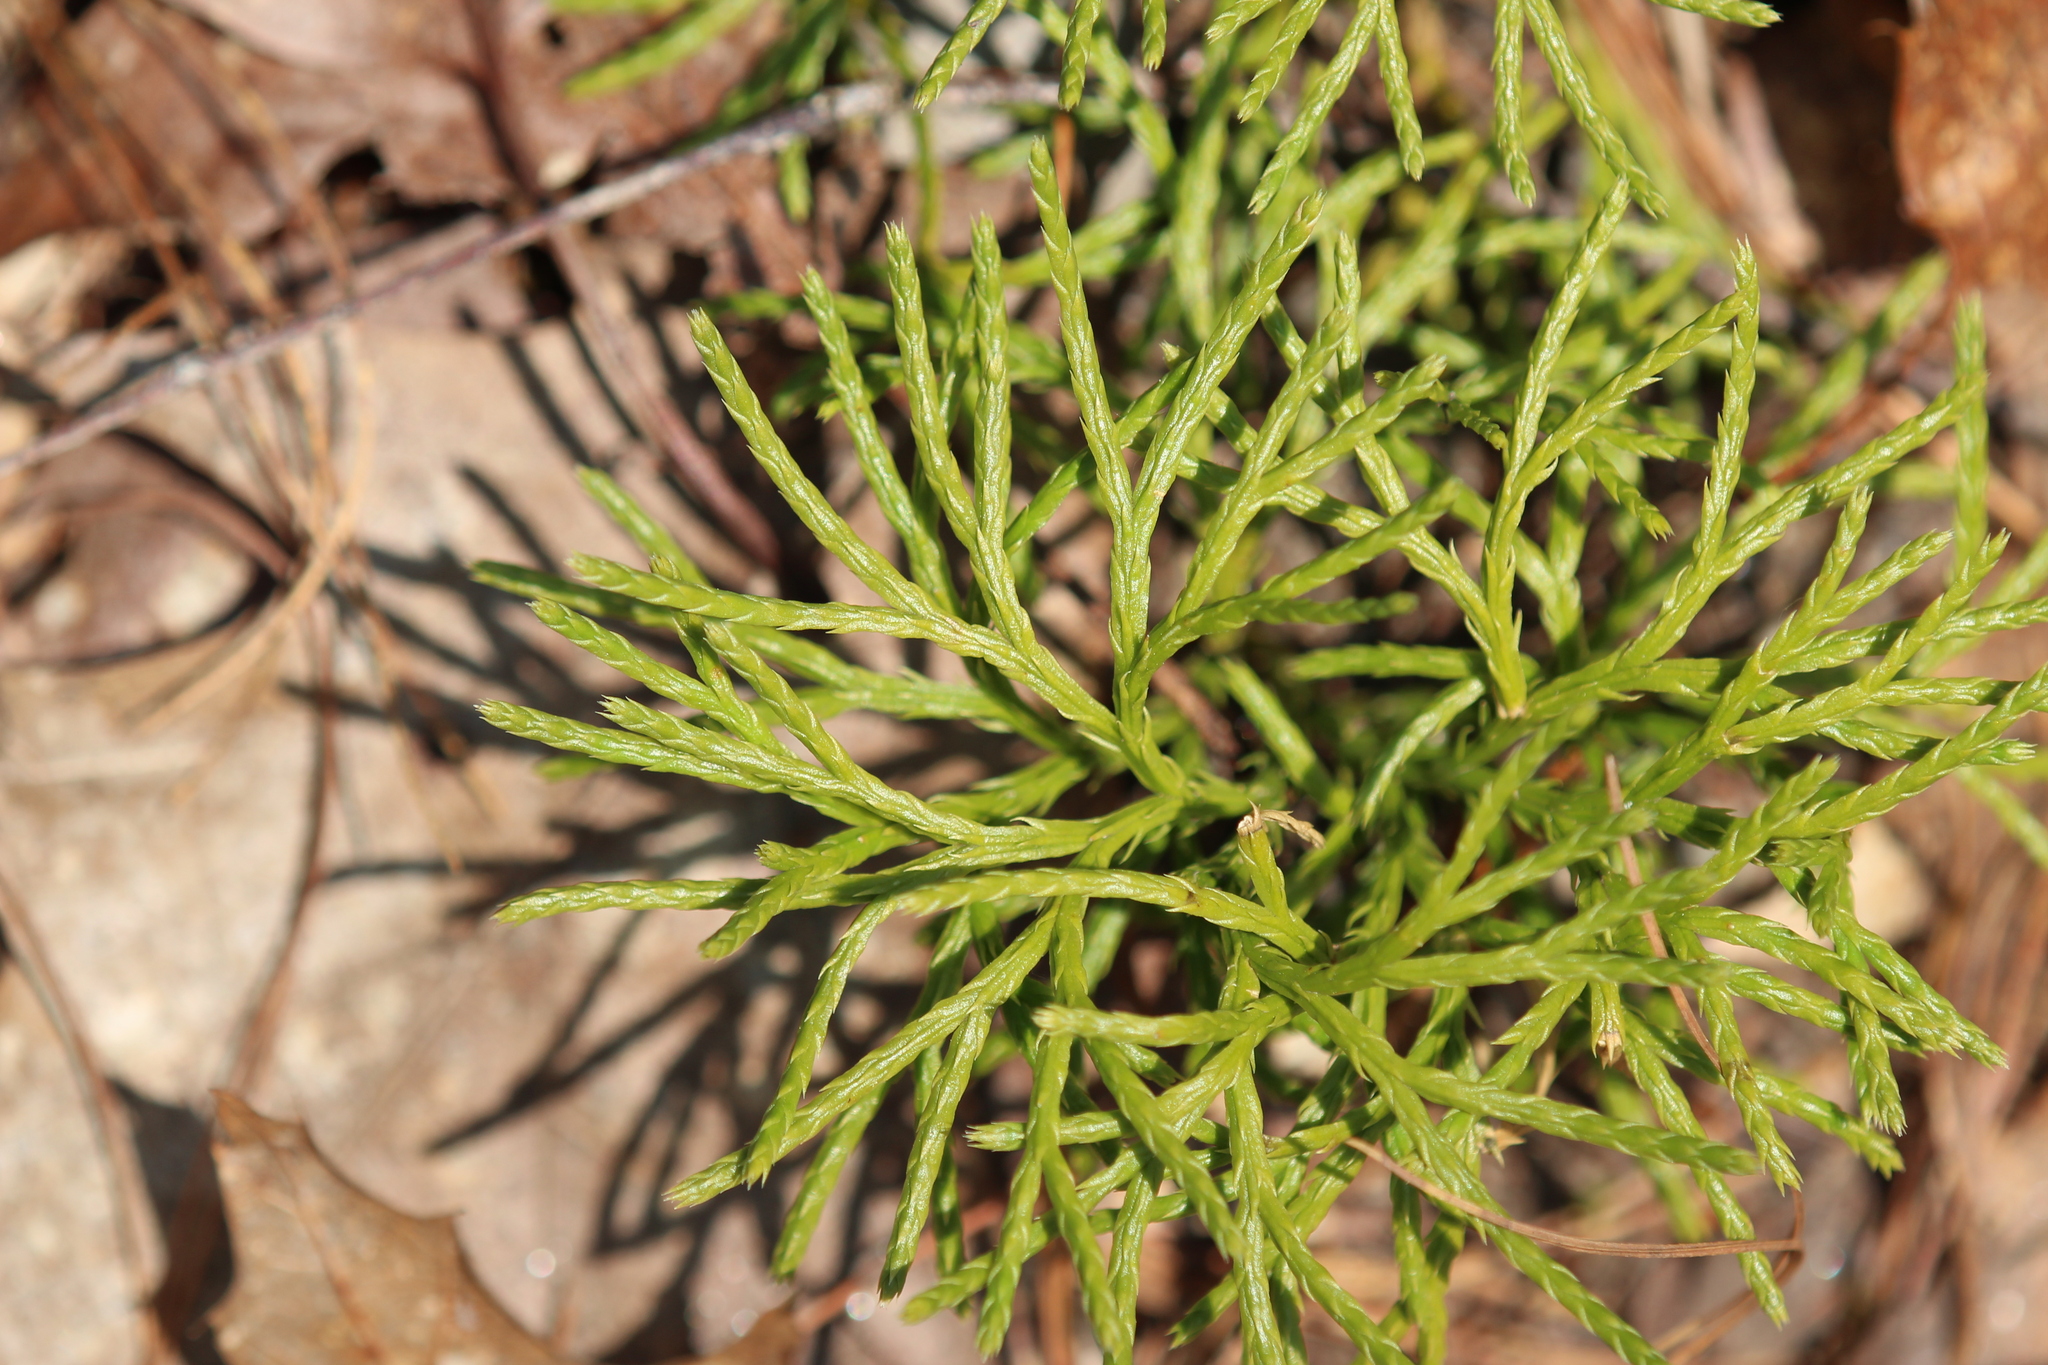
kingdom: Plantae
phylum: Tracheophyta
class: Lycopodiopsida
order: Lycopodiales
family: Lycopodiaceae
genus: Diphasiastrum
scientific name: Diphasiastrum digitatum
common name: Southern running-pine
